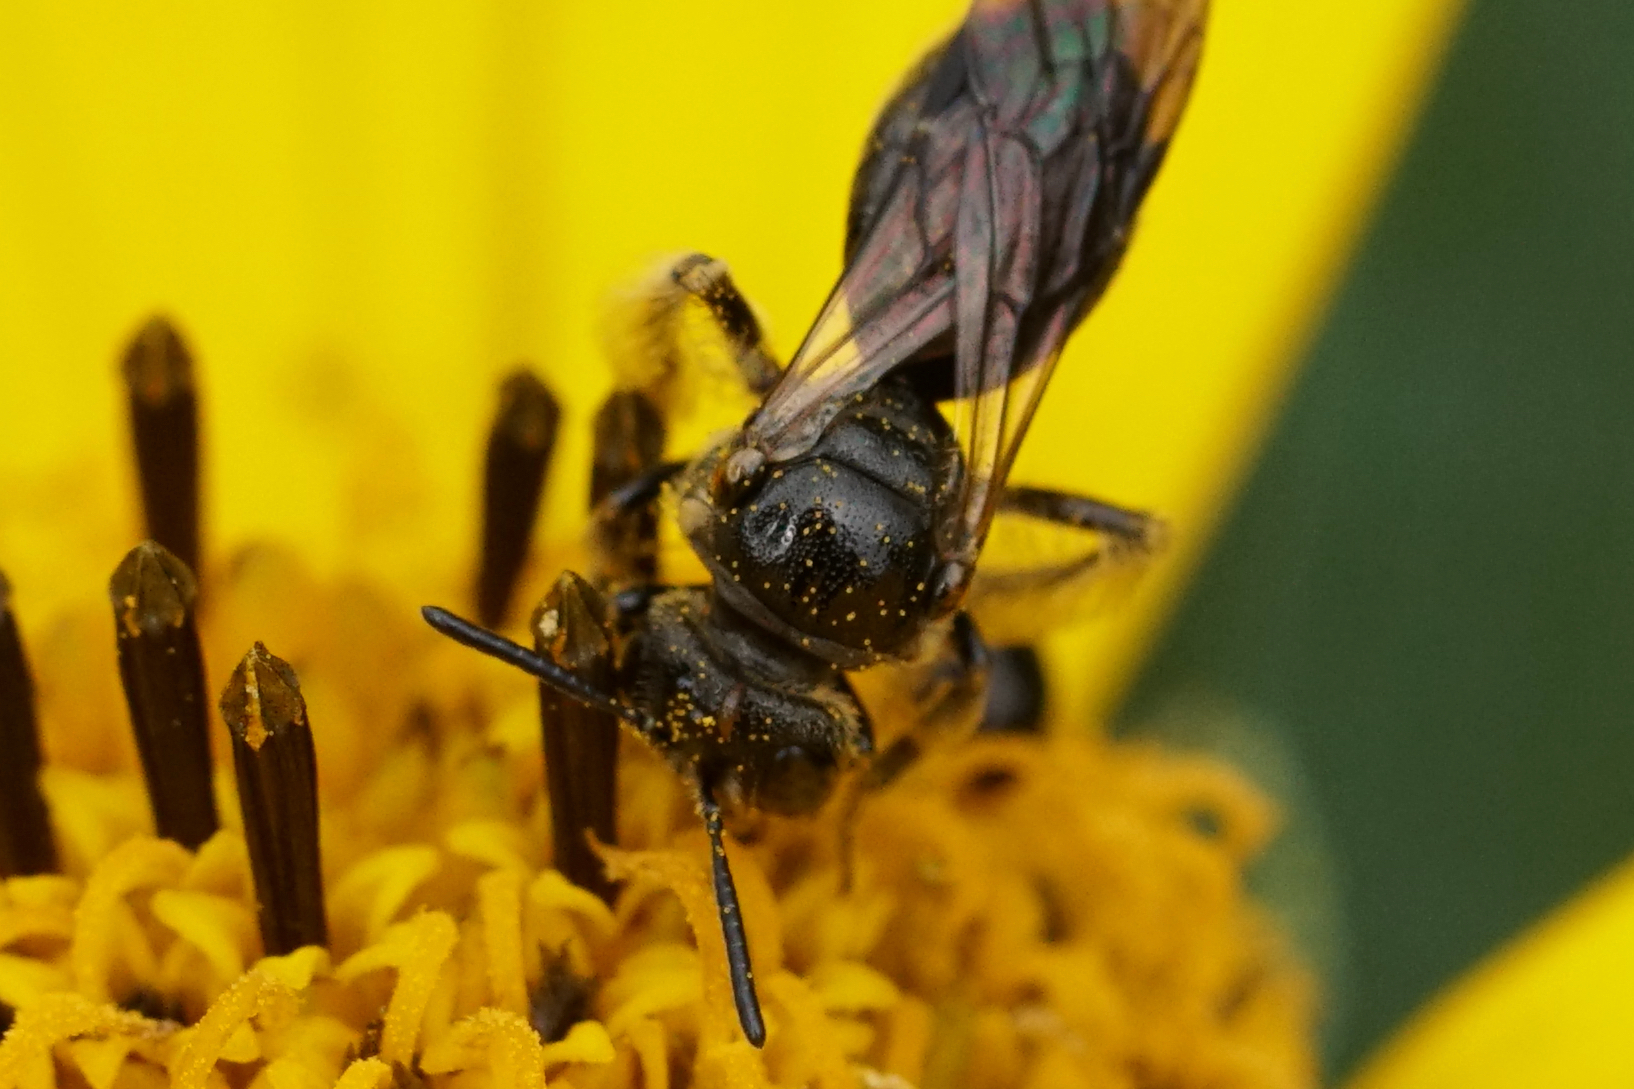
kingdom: Animalia
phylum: Arthropoda
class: Insecta
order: Hymenoptera
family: Andrenidae
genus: Pseudopanurgus
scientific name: Pseudopanurgus labrosus
